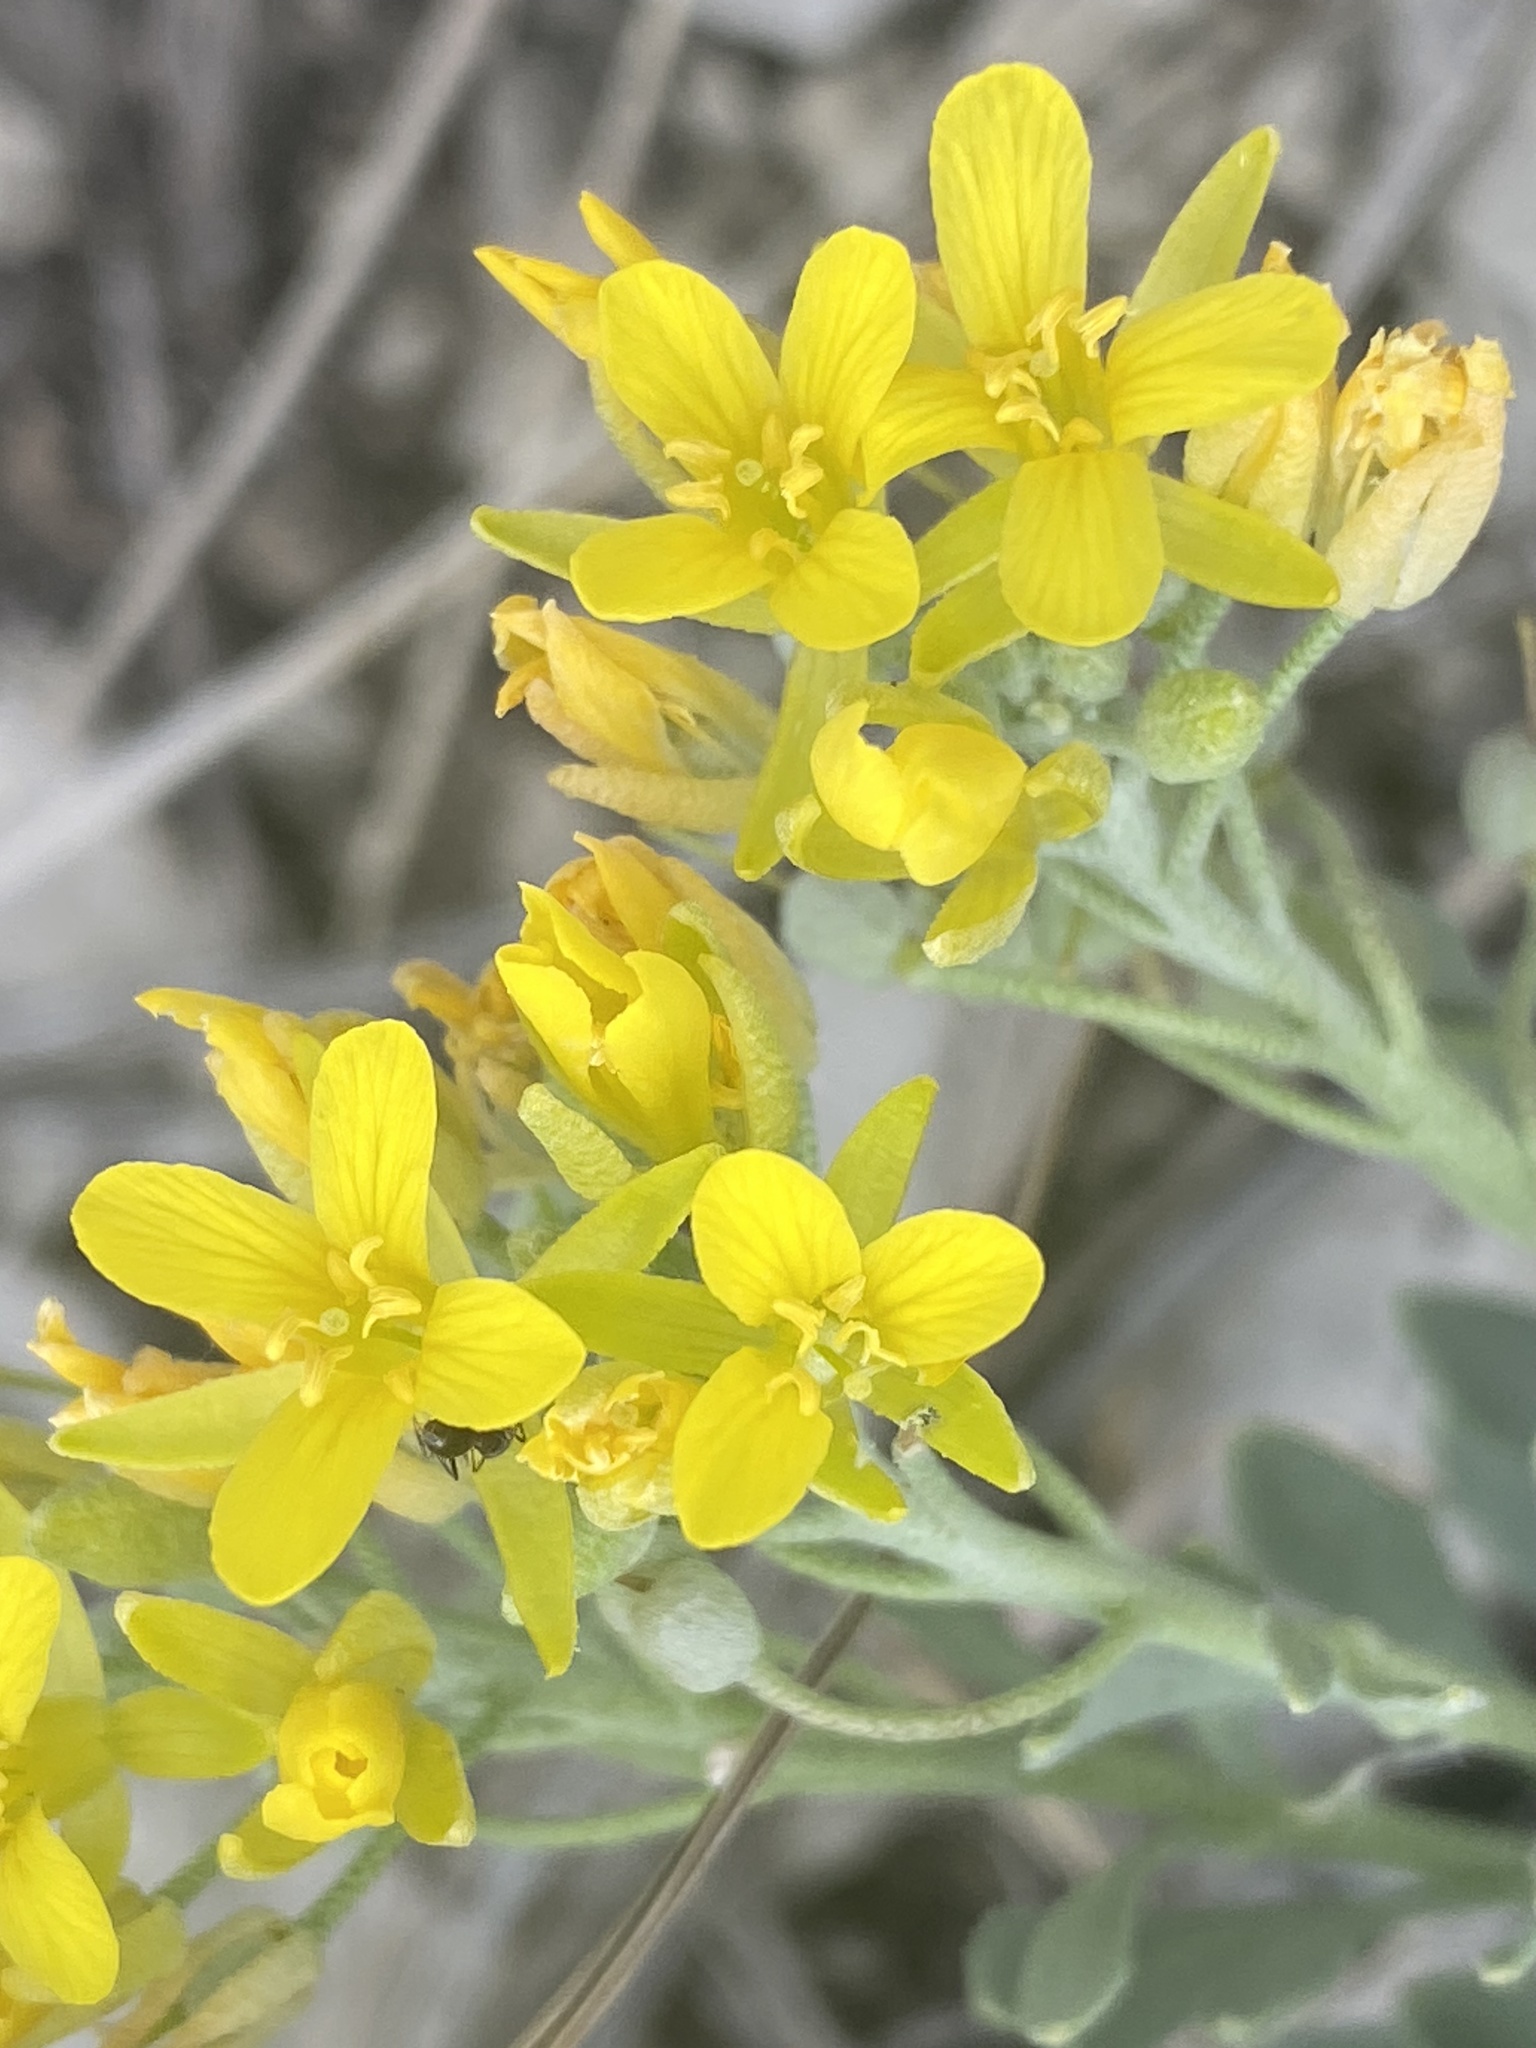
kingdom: Plantae
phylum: Tracheophyta
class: Magnoliopsida
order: Brassicales
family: Brassicaceae
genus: Physaria
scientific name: Physaria bellii
